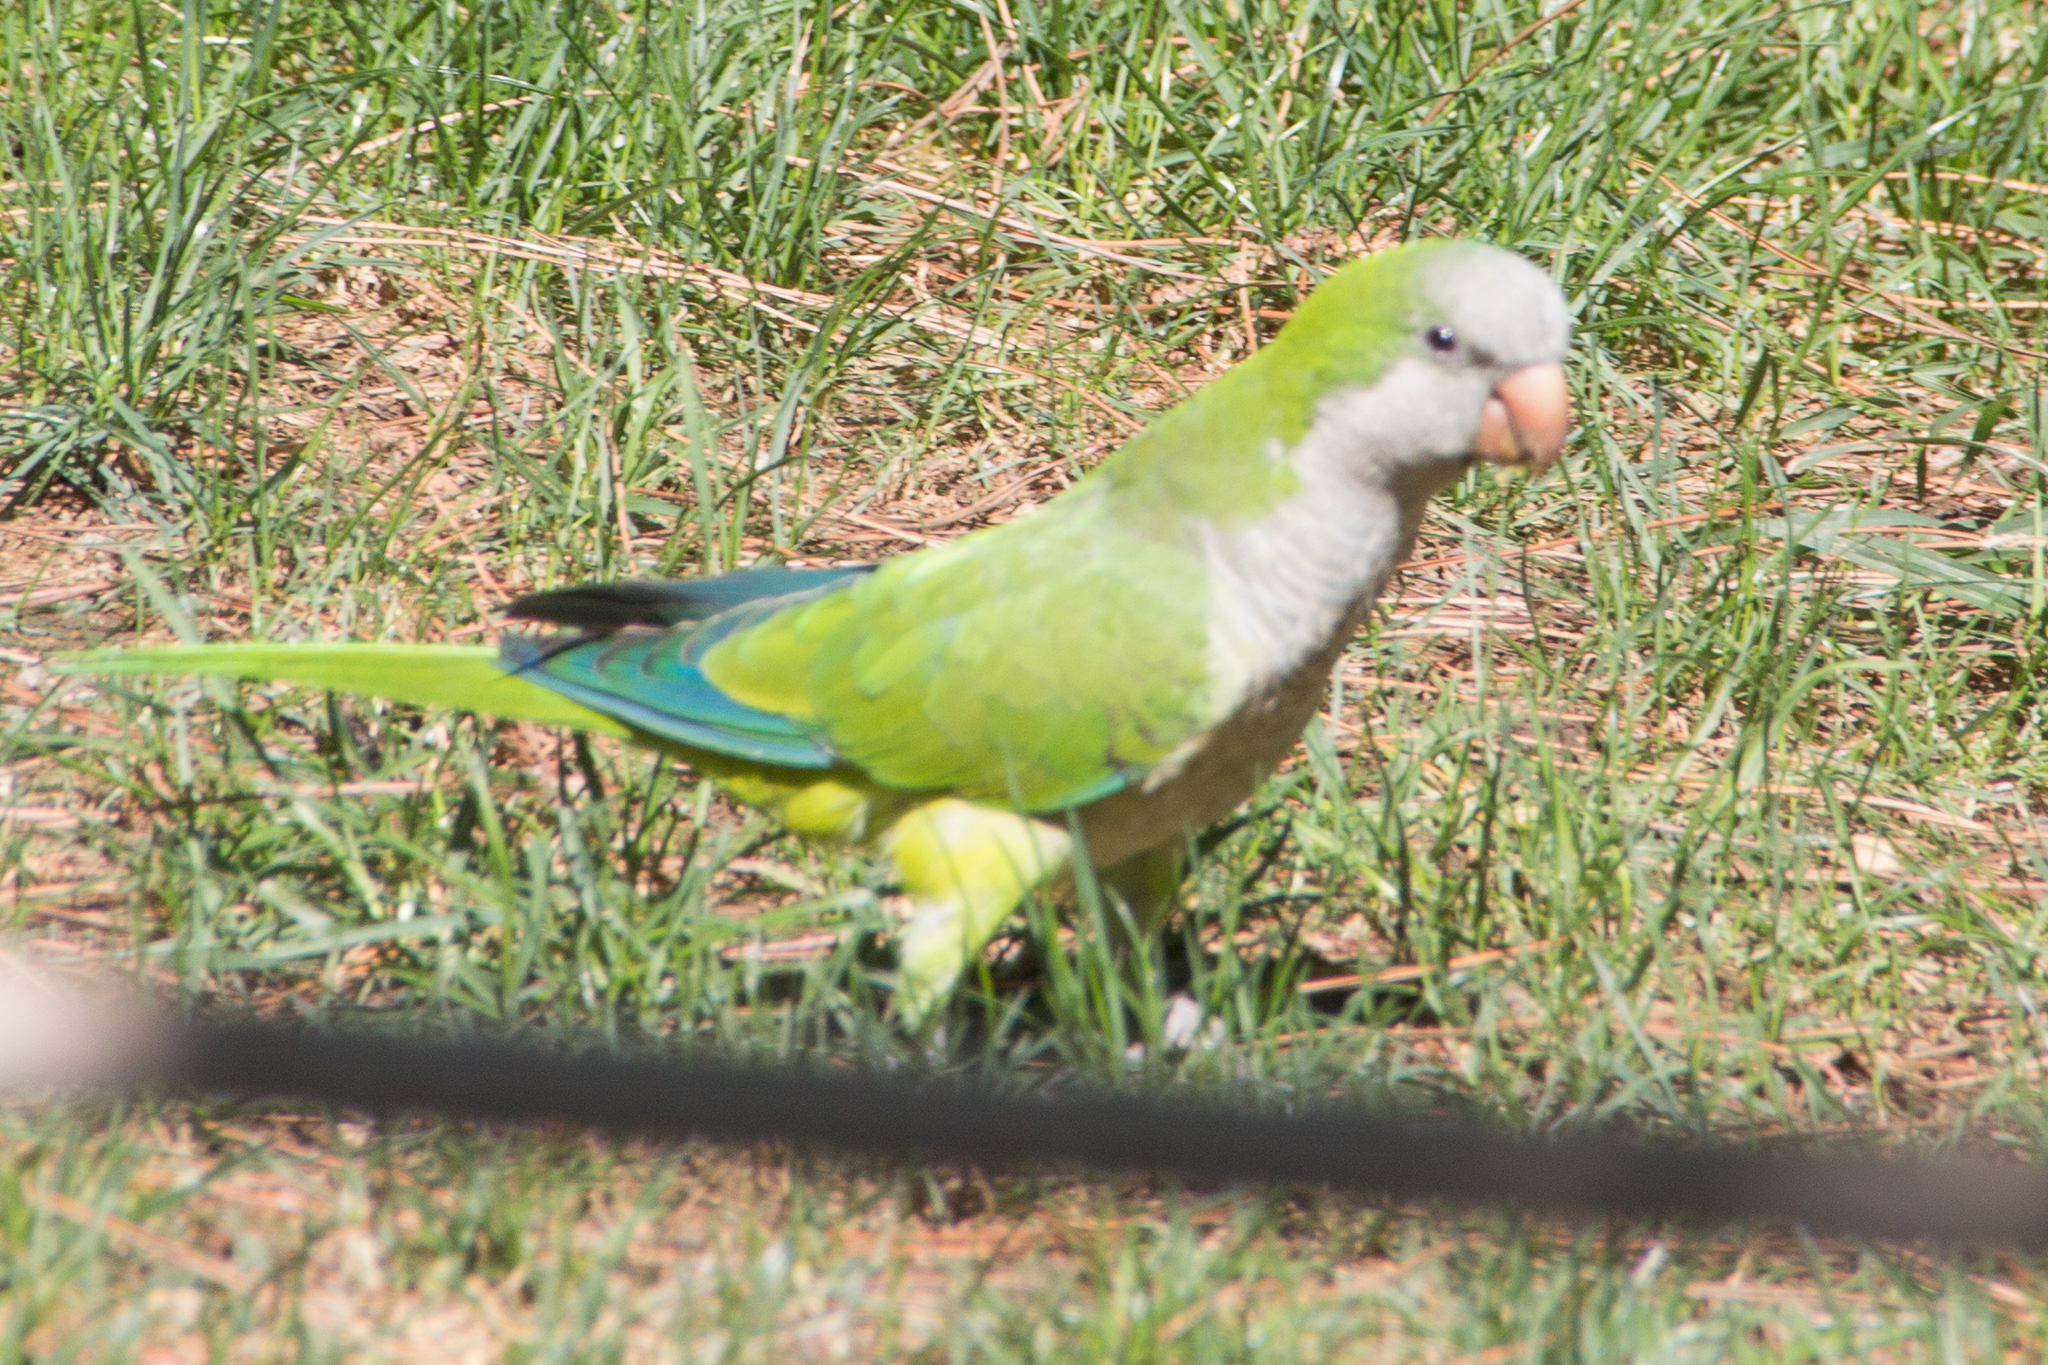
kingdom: Animalia
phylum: Chordata
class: Aves
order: Psittaciformes
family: Psittacidae
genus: Myiopsitta
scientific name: Myiopsitta monachus
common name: Monk parakeet
